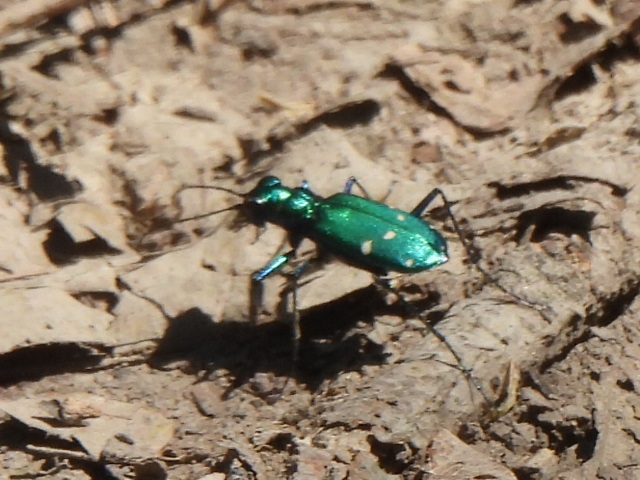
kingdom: Animalia
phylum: Arthropoda
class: Insecta
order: Coleoptera
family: Carabidae
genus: Cicindela
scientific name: Cicindela sexguttata
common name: Six-spotted tiger beetle
